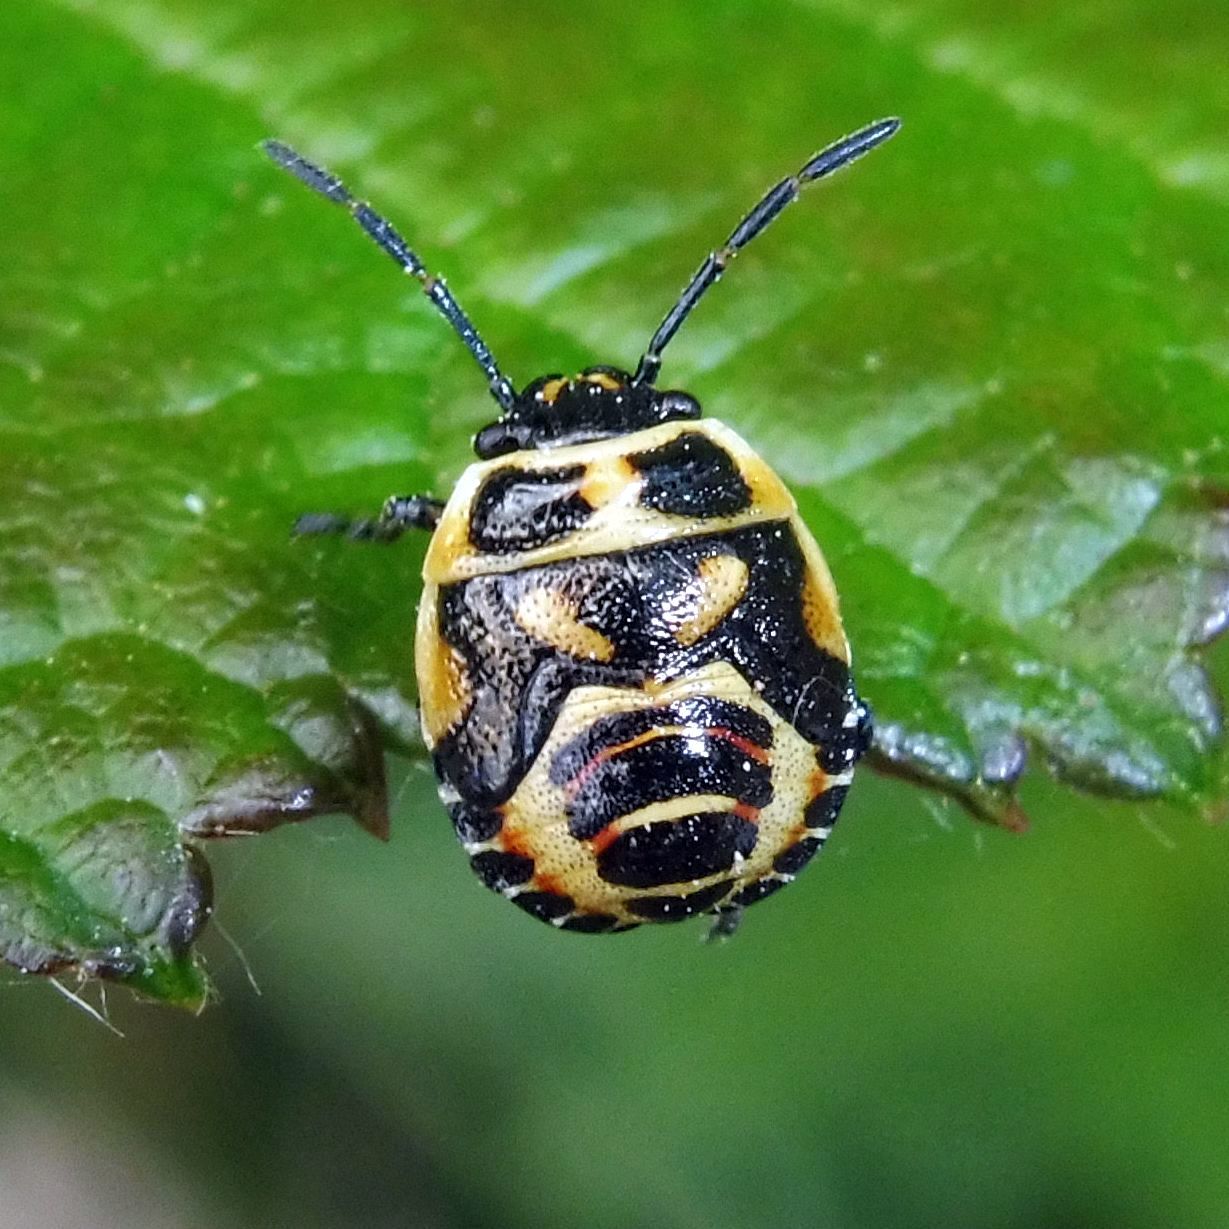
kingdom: Animalia
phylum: Arthropoda
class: Insecta
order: Hemiptera
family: Pentatomidae
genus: Eurydema
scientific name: Eurydema oleracea
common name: Cabbage bug
